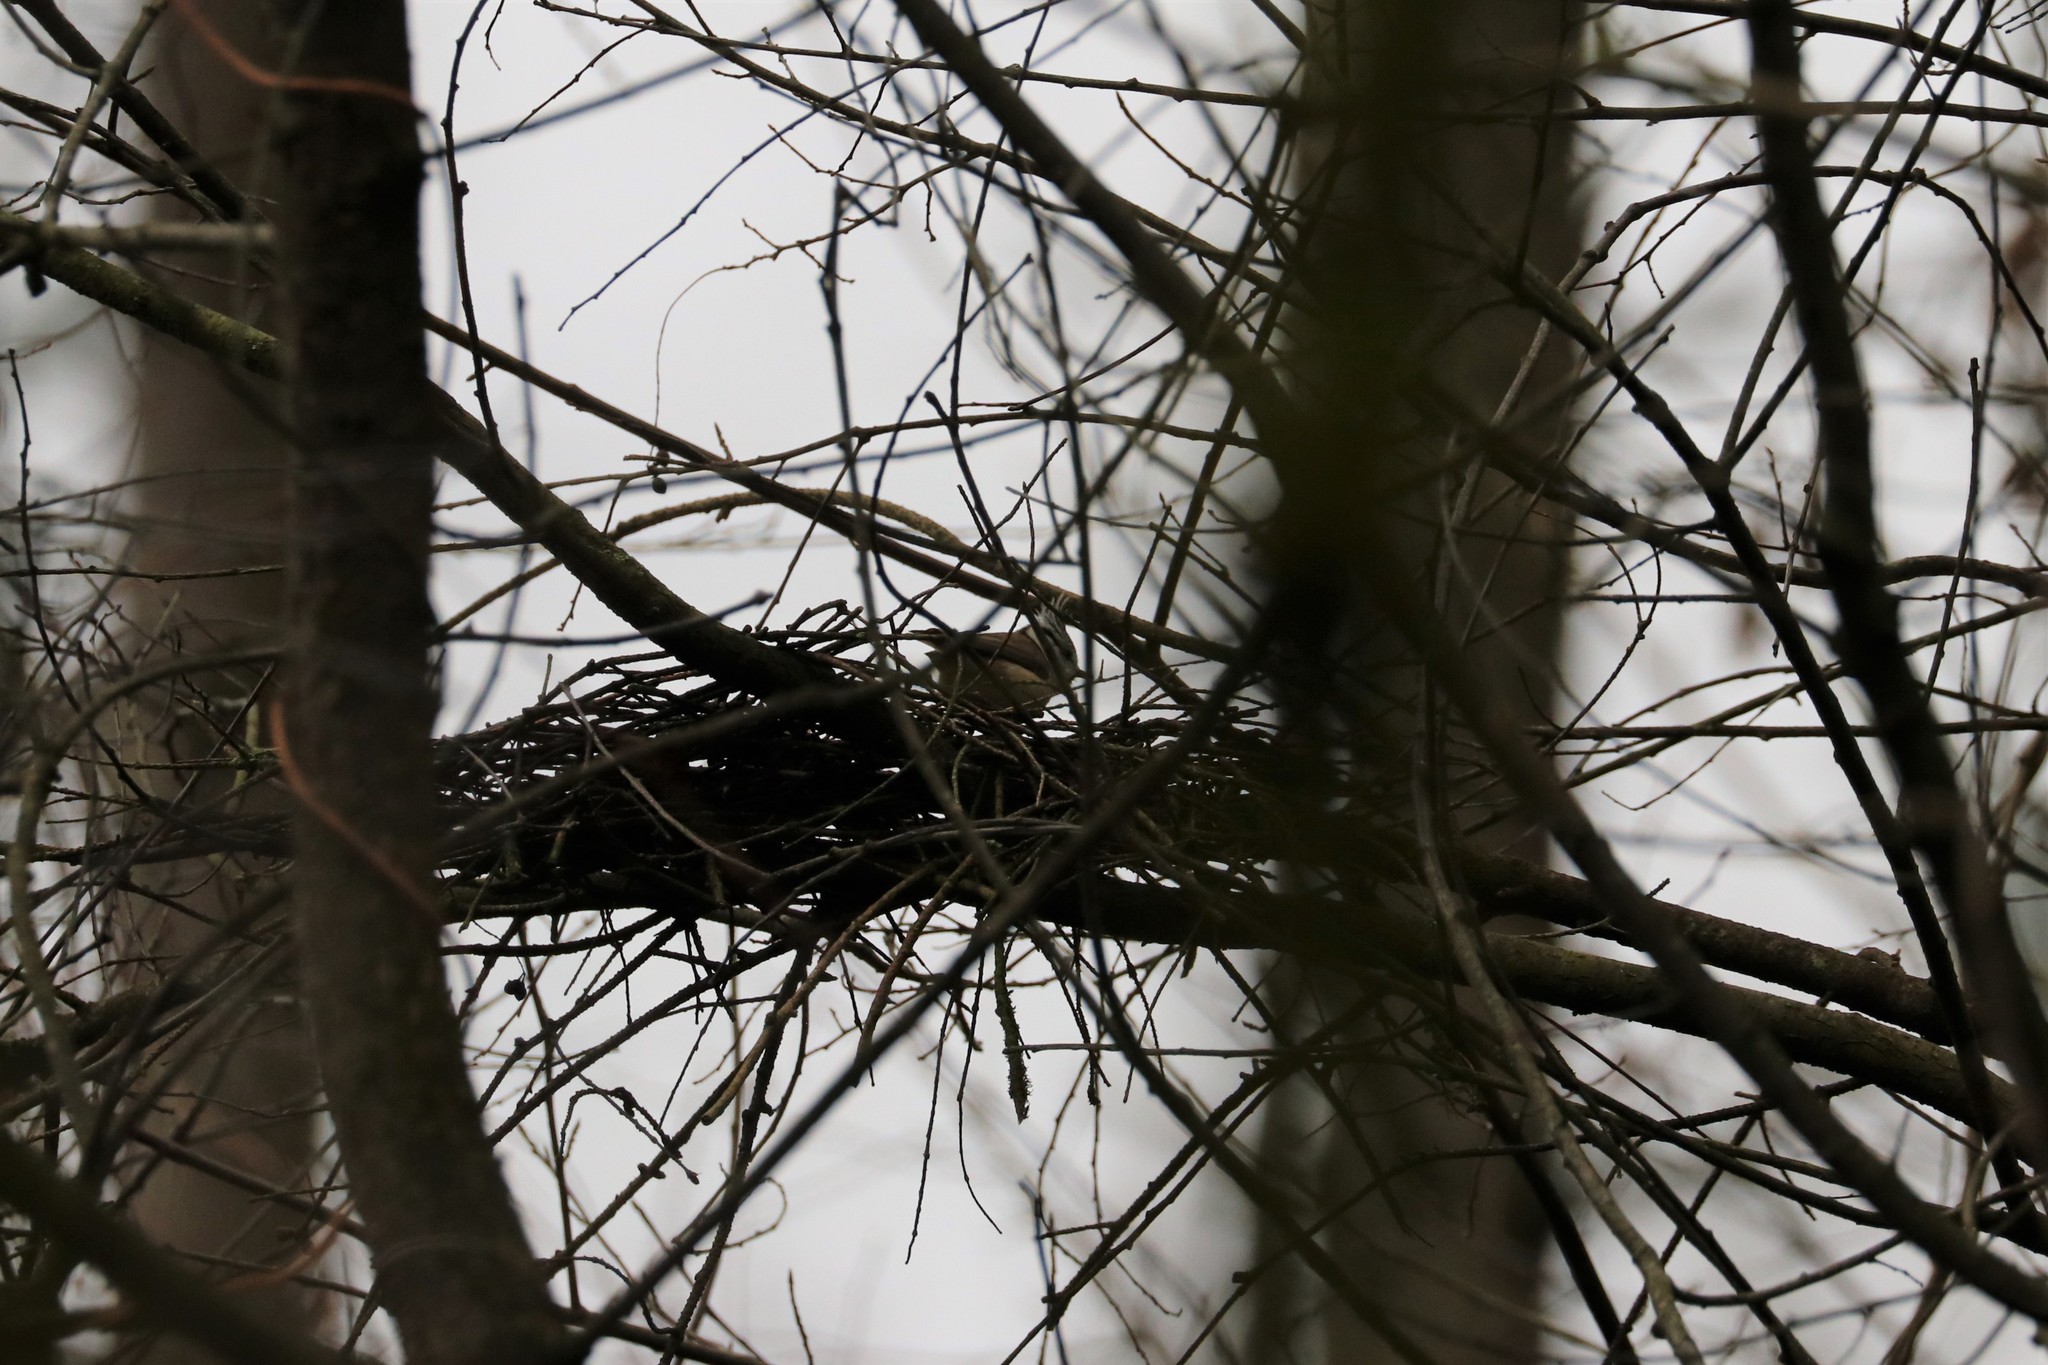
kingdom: Animalia
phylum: Chordata
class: Aves
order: Passeriformes
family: Paridae
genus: Lophophanes
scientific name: Lophophanes cristatus
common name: European crested tit
